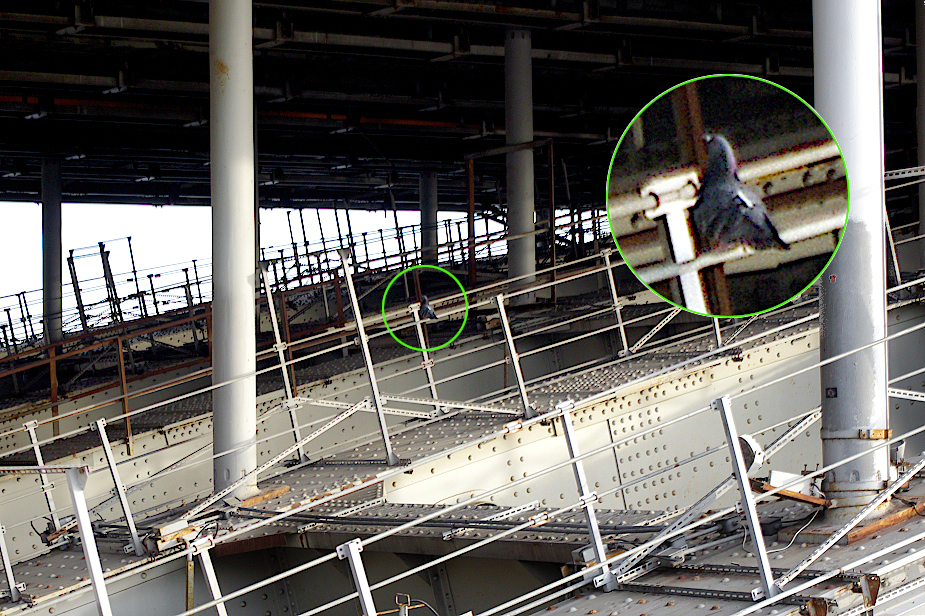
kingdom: Animalia
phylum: Chordata
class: Aves
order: Columbiformes
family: Columbidae
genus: Columba
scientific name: Columba livia
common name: Rock pigeon
